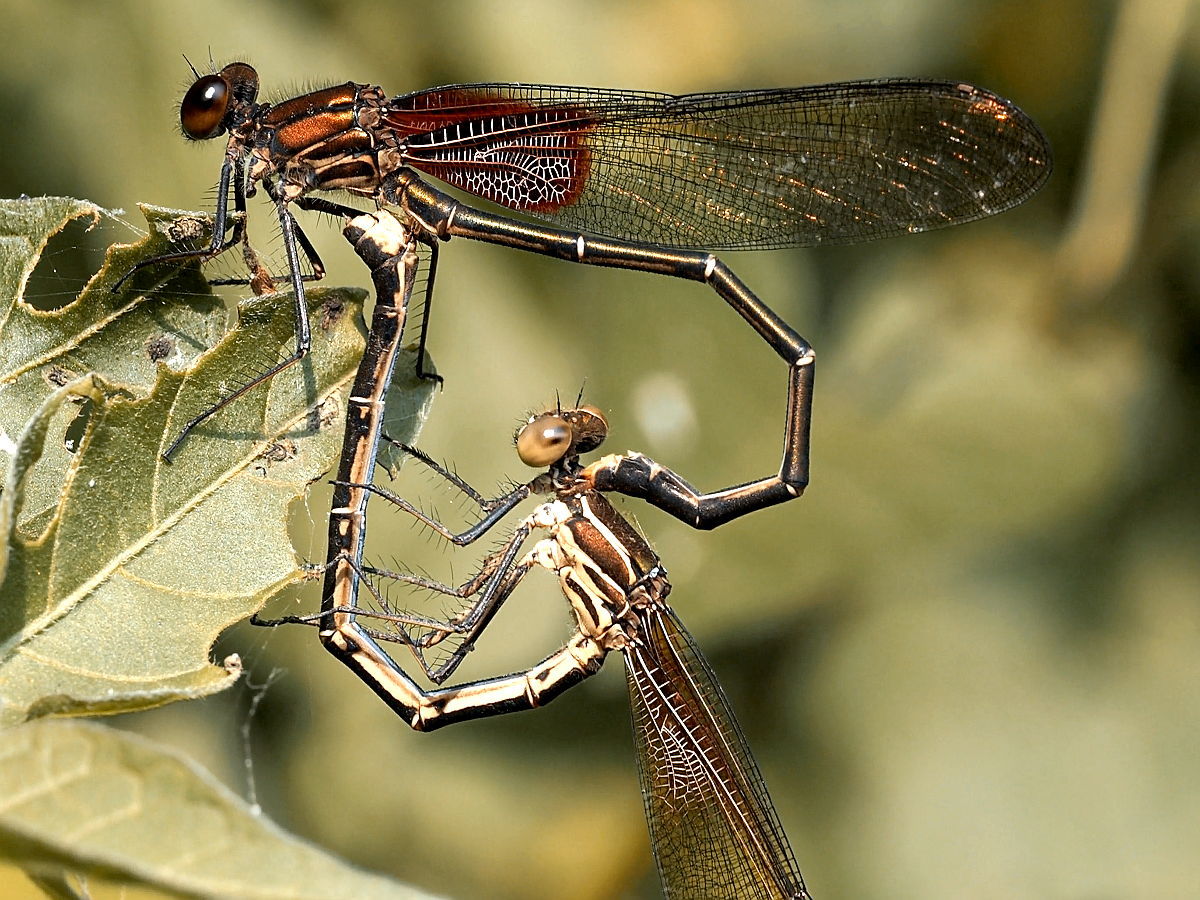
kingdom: Animalia
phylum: Arthropoda
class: Insecta
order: Odonata
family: Calopterygidae
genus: Hetaerina
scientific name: Hetaerina americana
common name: American rubyspot
